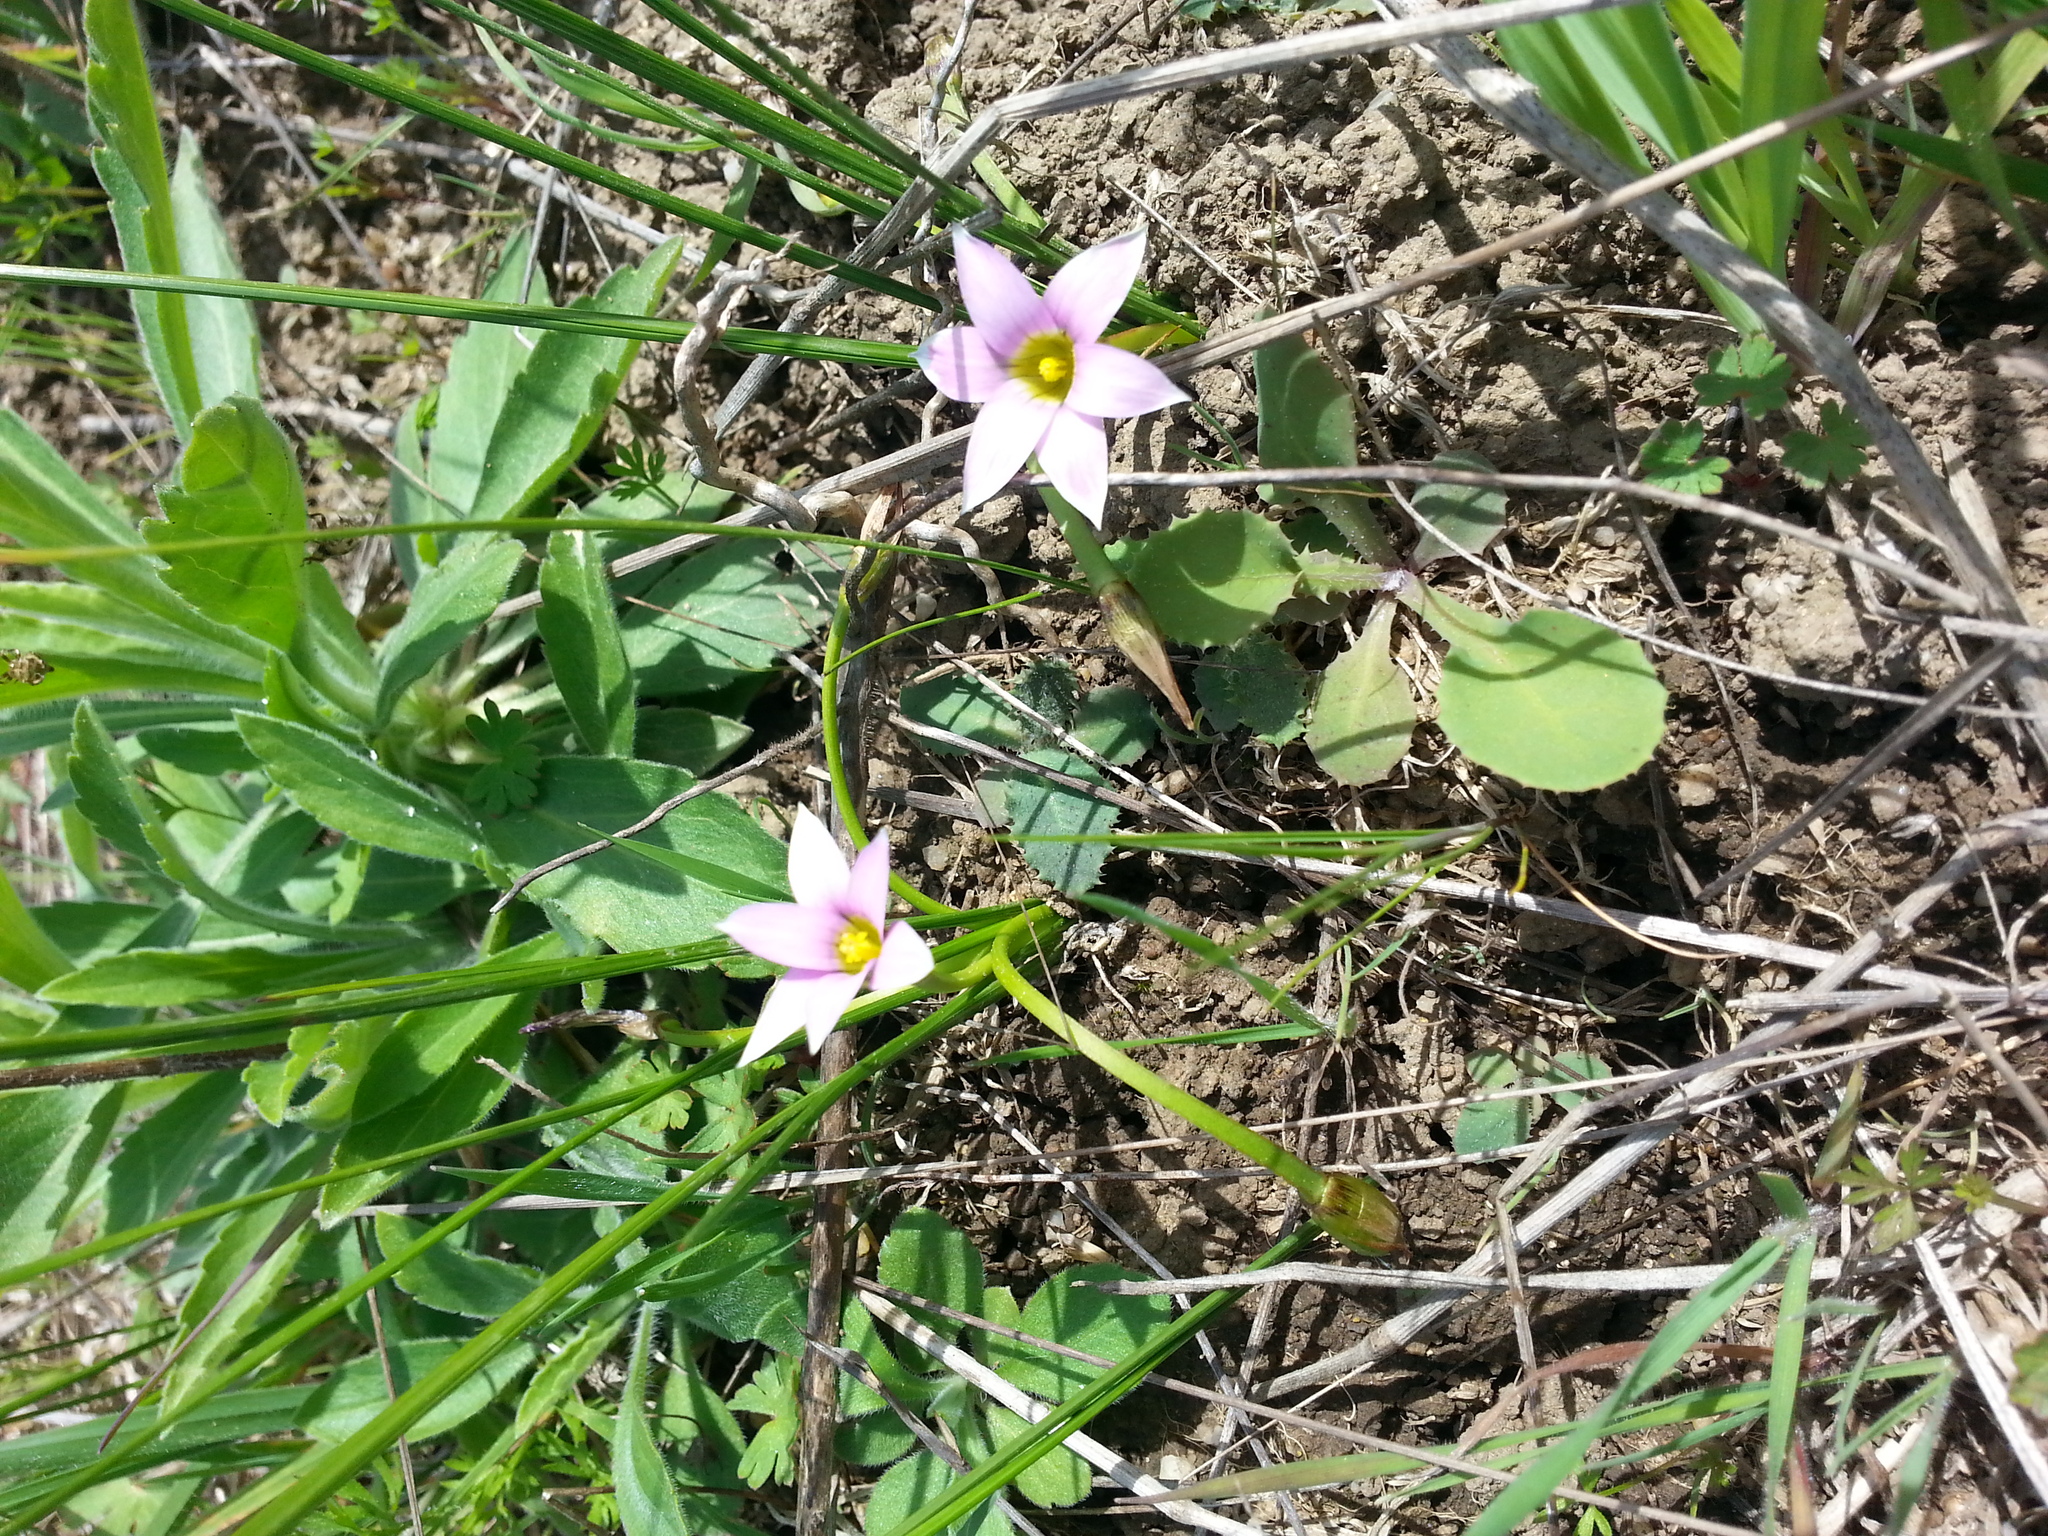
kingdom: Plantae
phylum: Tracheophyta
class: Liliopsida
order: Asparagales
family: Iridaceae
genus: Romulea
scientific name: Romulea rosea
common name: Oniongrass
